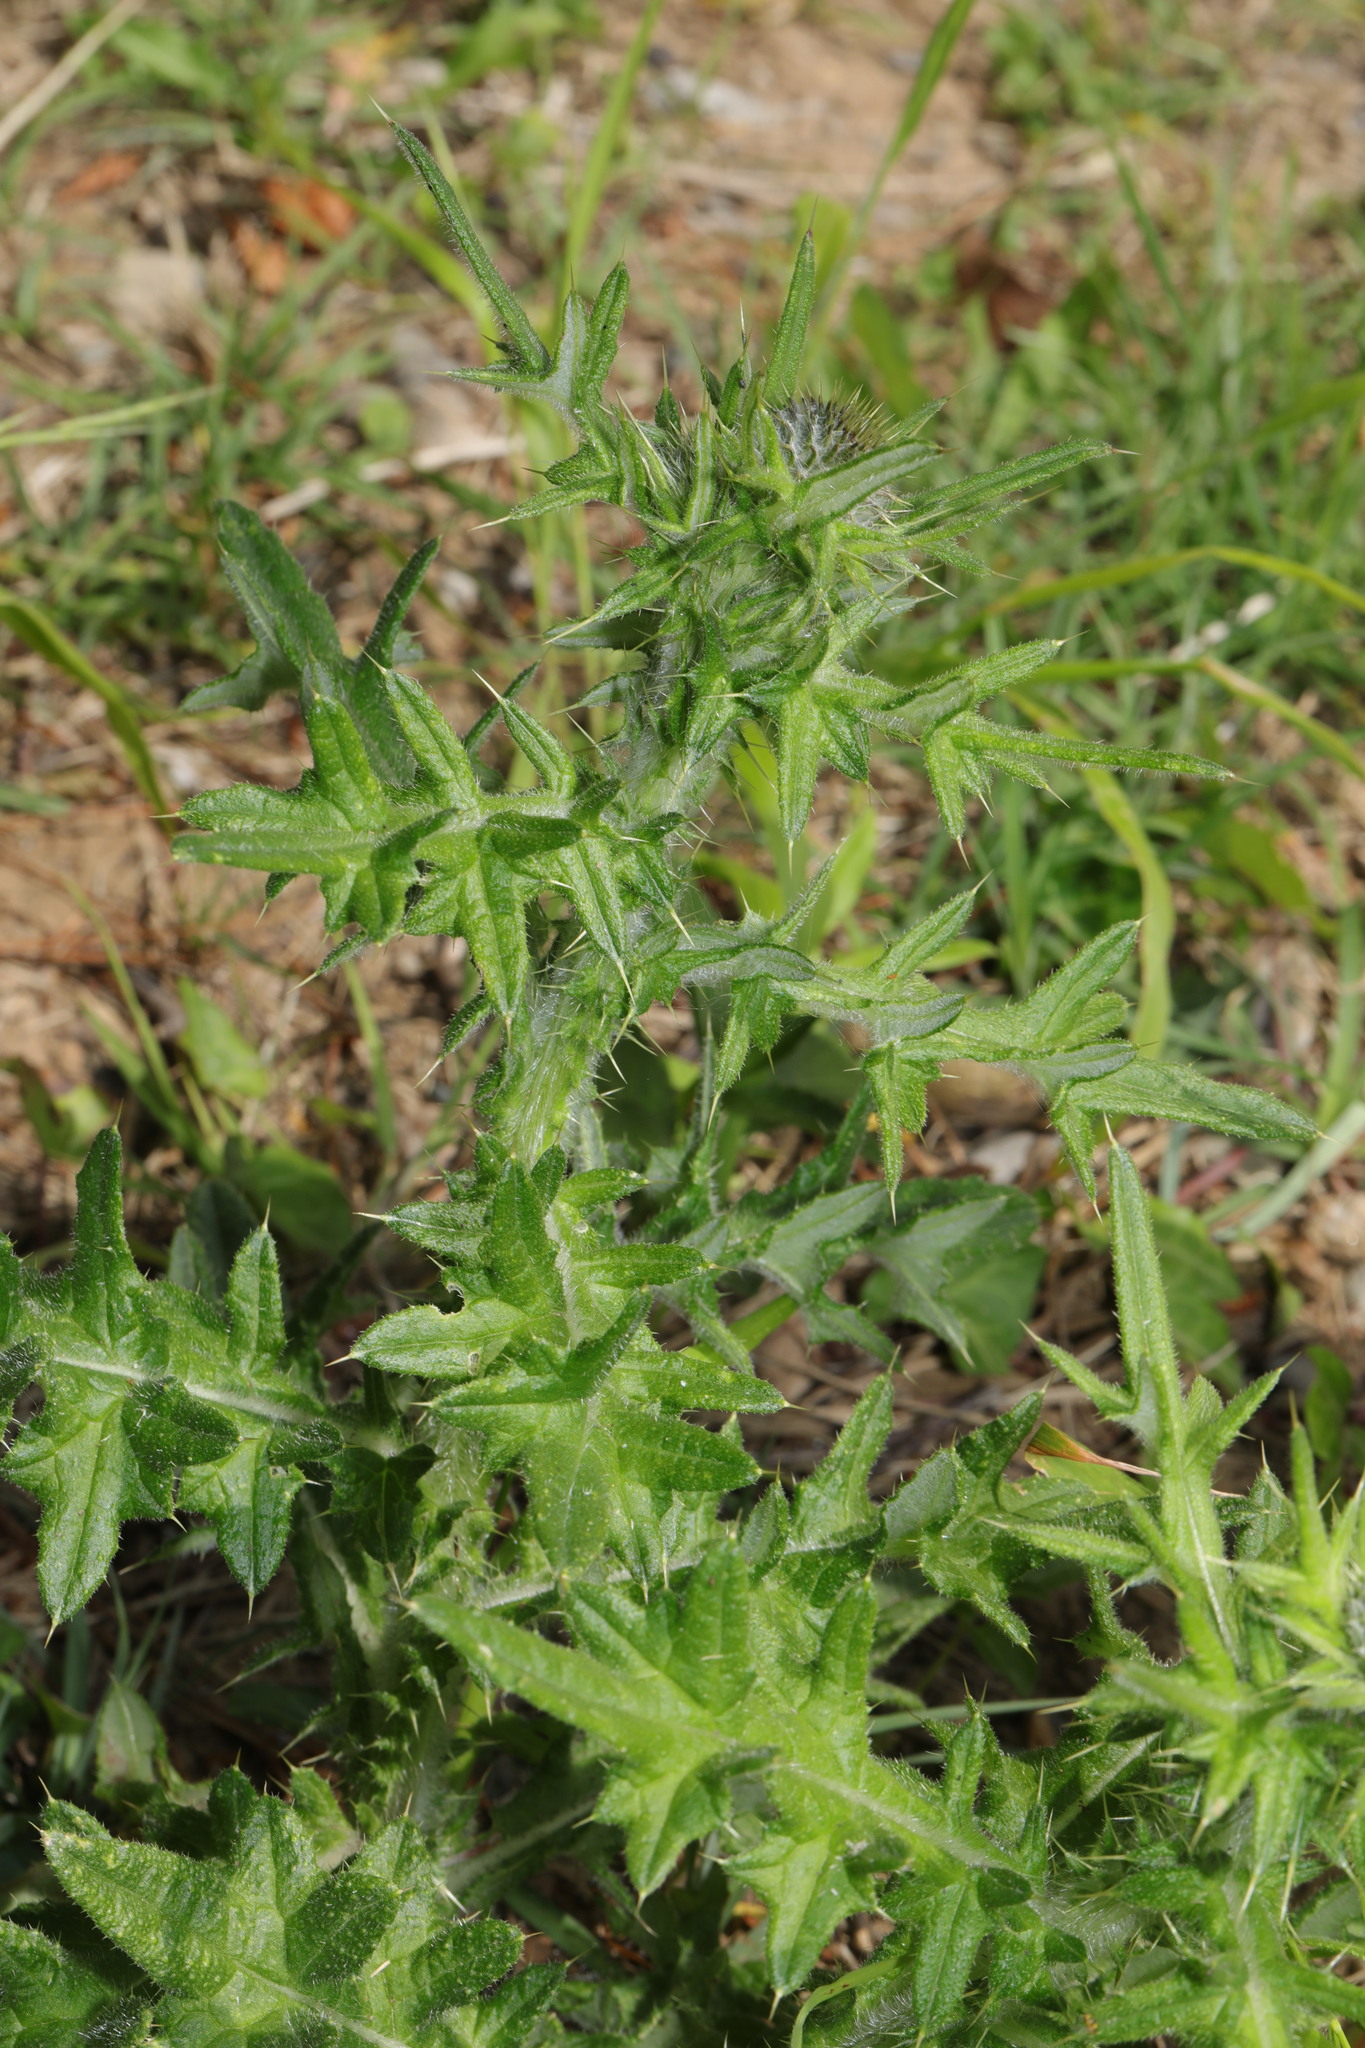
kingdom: Plantae
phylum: Tracheophyta
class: Magnoliopsida
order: Asterales
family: Asteraceae
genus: Cirsium
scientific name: Cirsium vulgare
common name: Bull thistle
